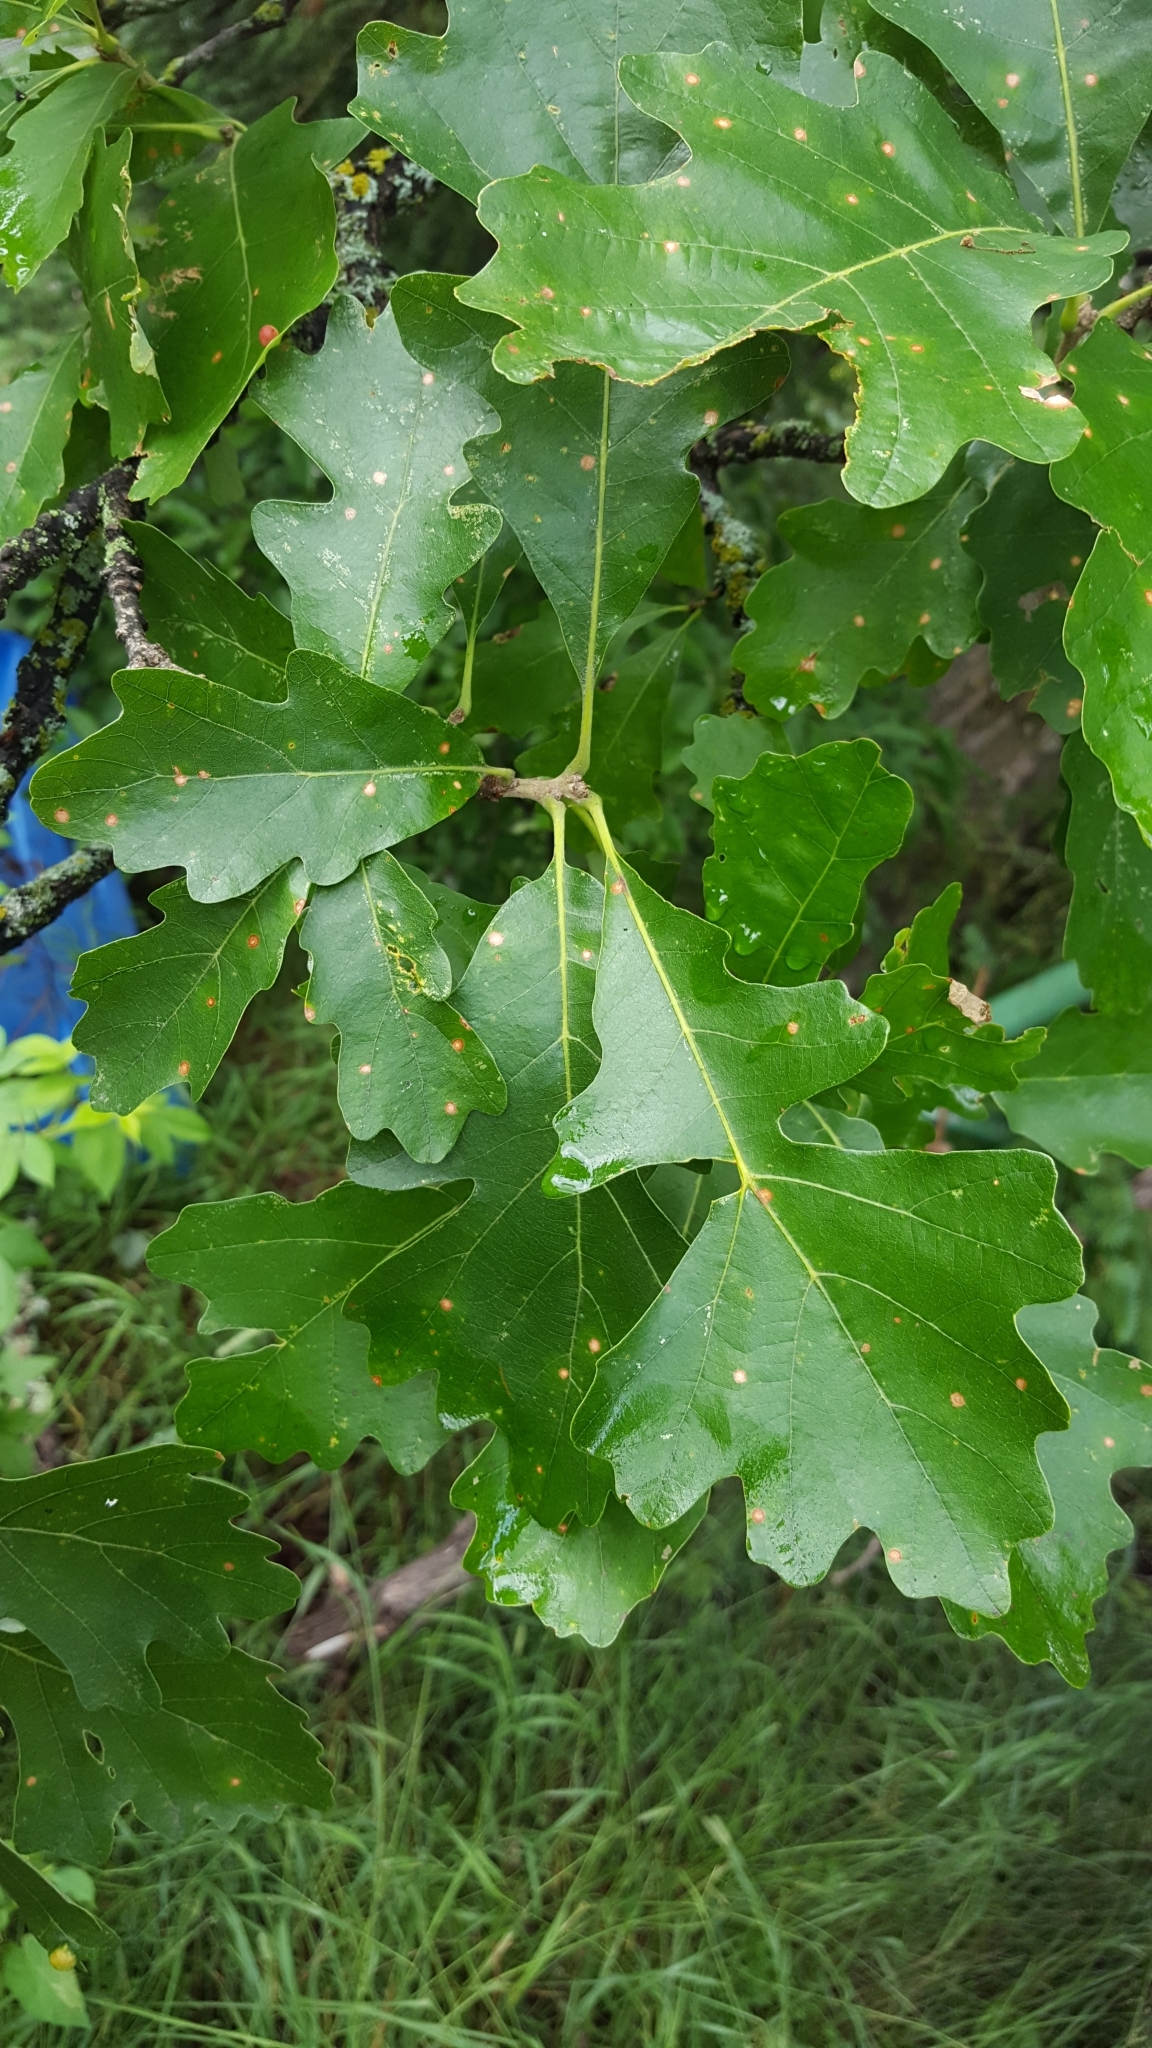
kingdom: Plantae
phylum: Tracheophyta
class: Magnoliopsida
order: Fagales
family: Fagaceae
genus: Quercus
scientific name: Quercus macrocarpa
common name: Bur oak
